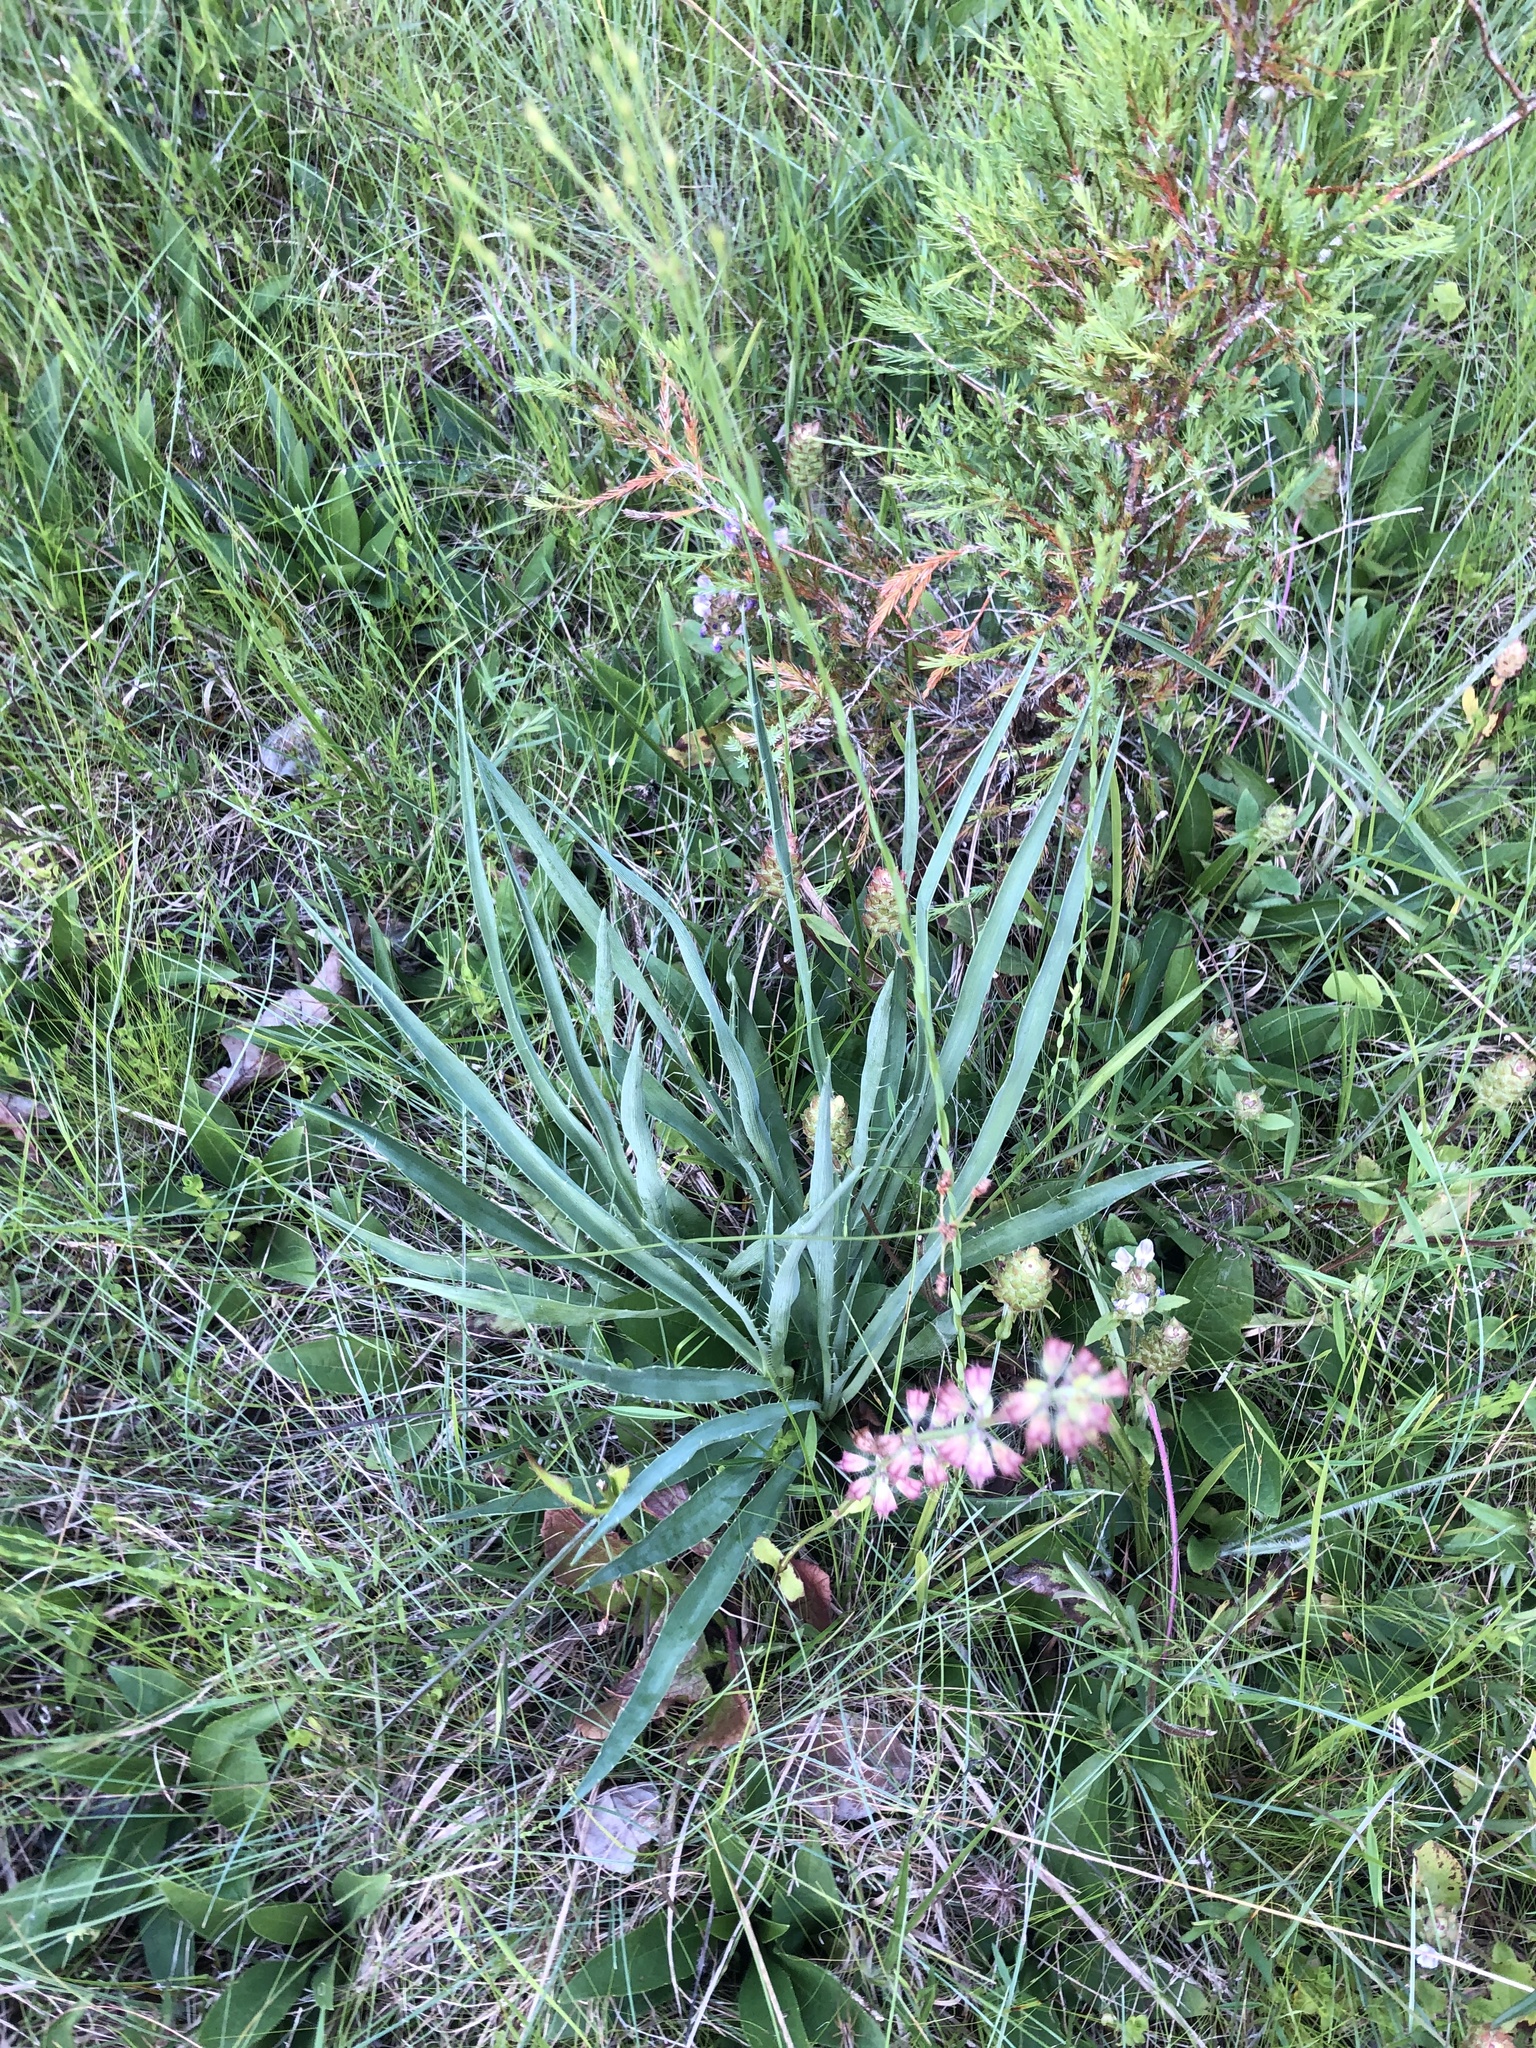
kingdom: Plantae
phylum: Tracheophyta
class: Magnoliopsida
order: Apiales
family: Apiaceae
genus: Eryngium
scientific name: Eryngium yuccifolium
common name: Button eryngo
